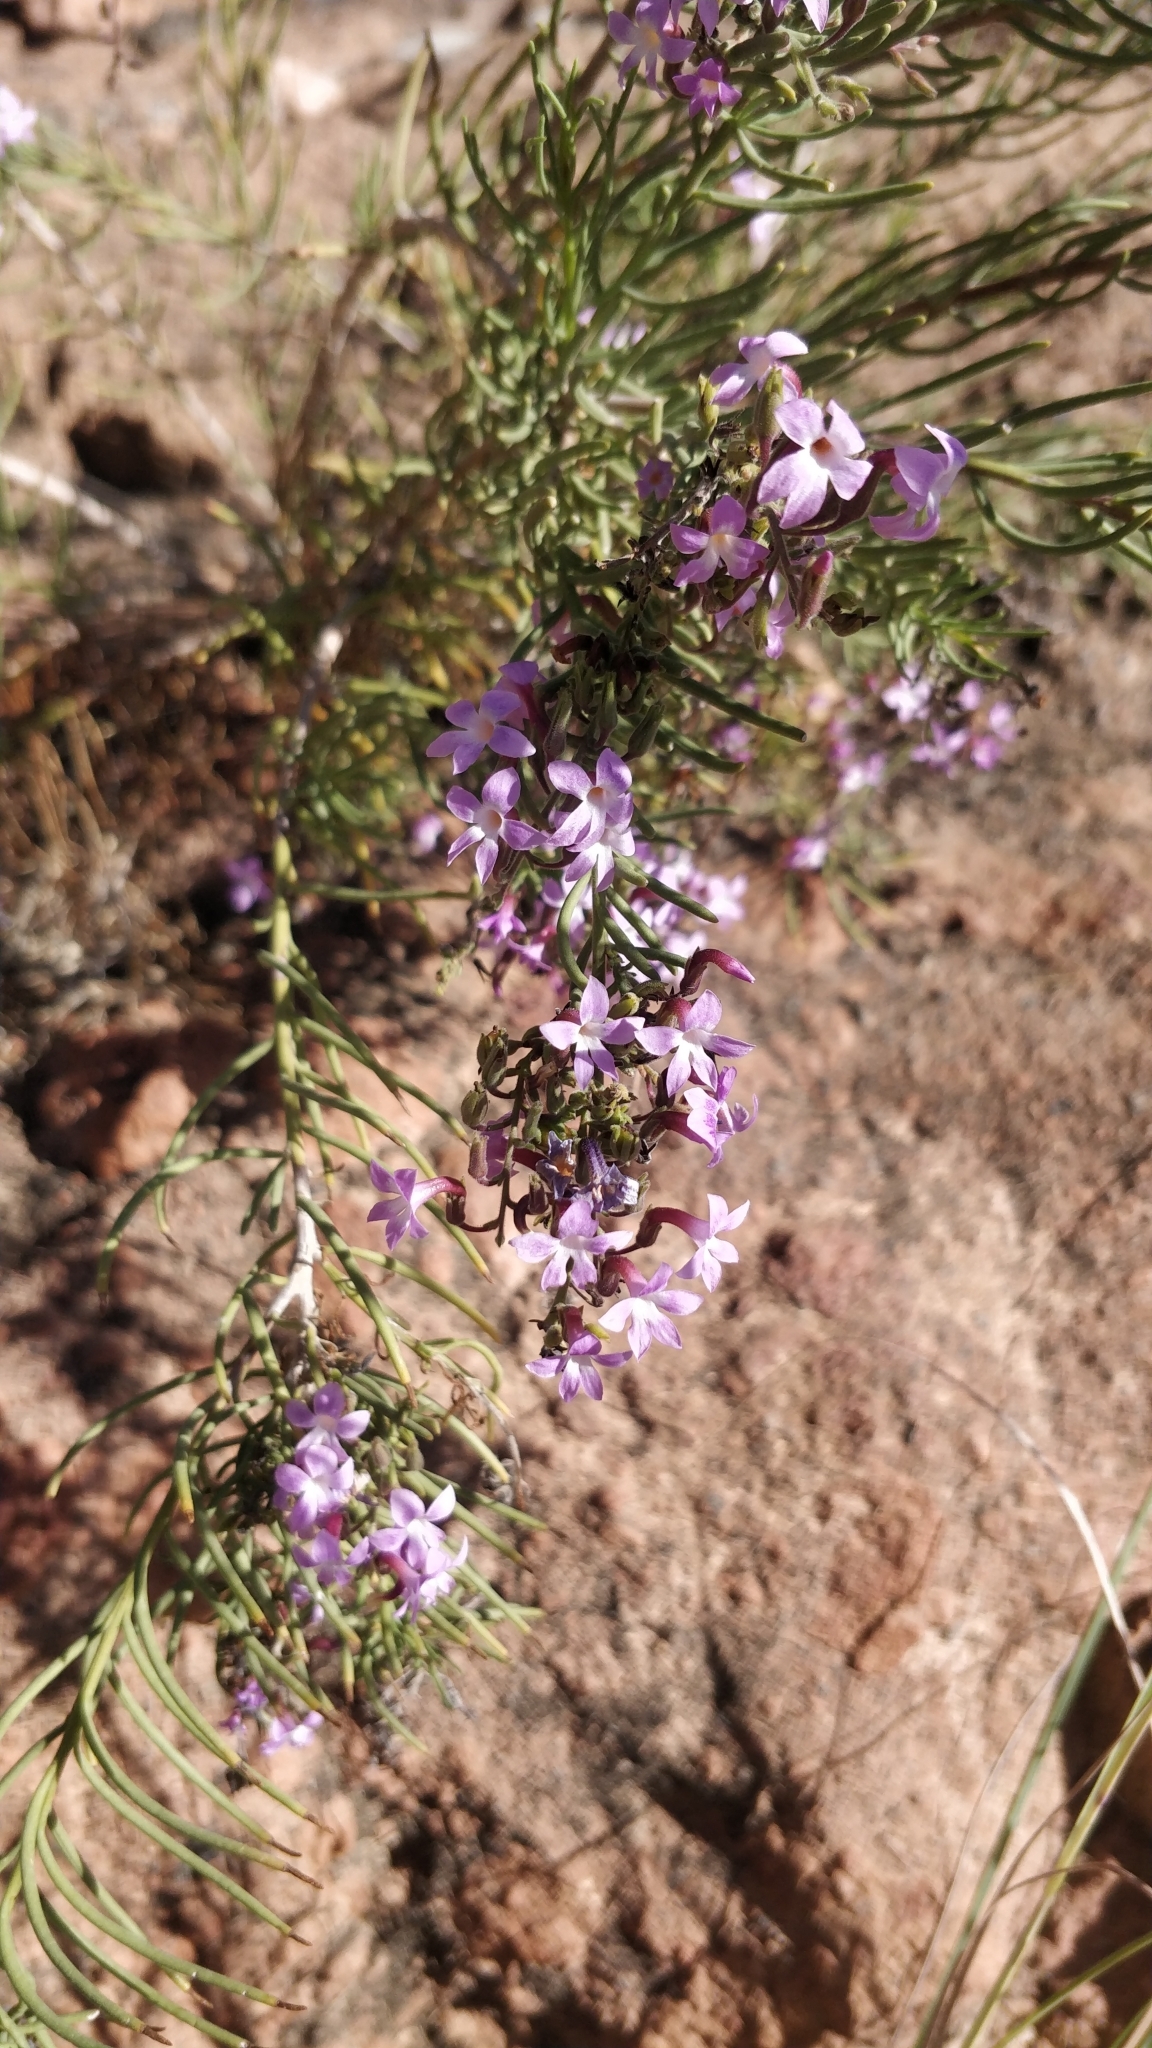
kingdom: Plantae
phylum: Tracheophyta
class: Magnoliopsida
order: Lamiales
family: Plantaginaceae
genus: Campylanthus
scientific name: Campylanthus salsoloides
